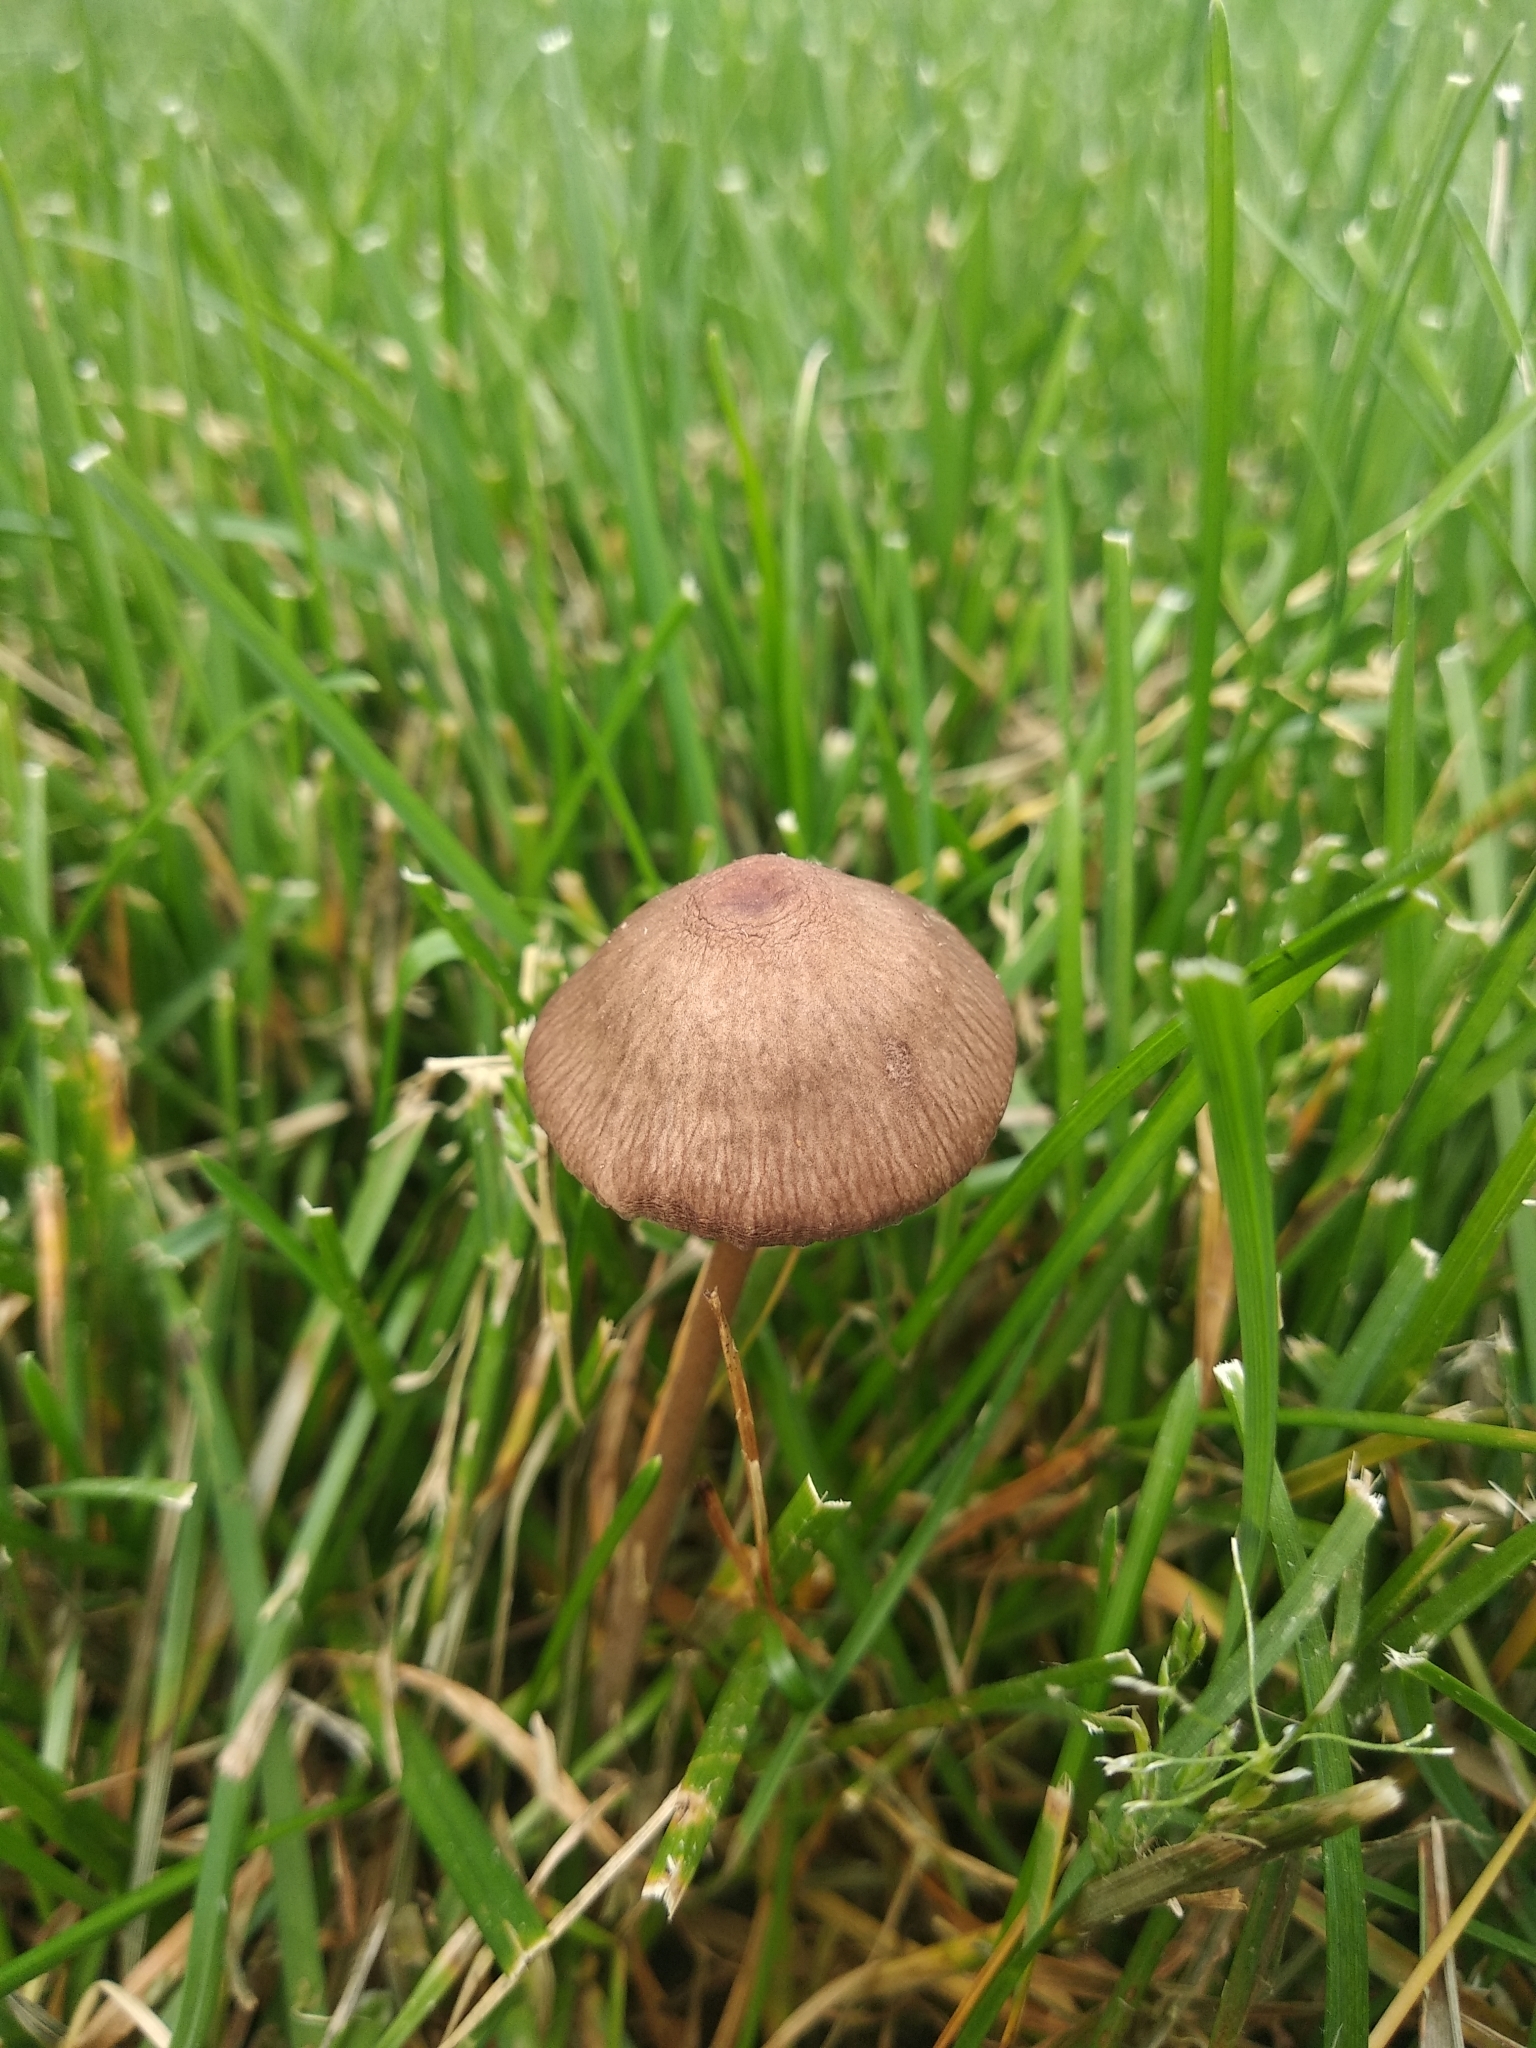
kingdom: Fungi
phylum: Basidiomycota
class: Agaricomycetes
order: Agaricales
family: Bolbitiaceae
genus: Panaeolina
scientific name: Panaeolina foenisecii
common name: Brown hay cap
